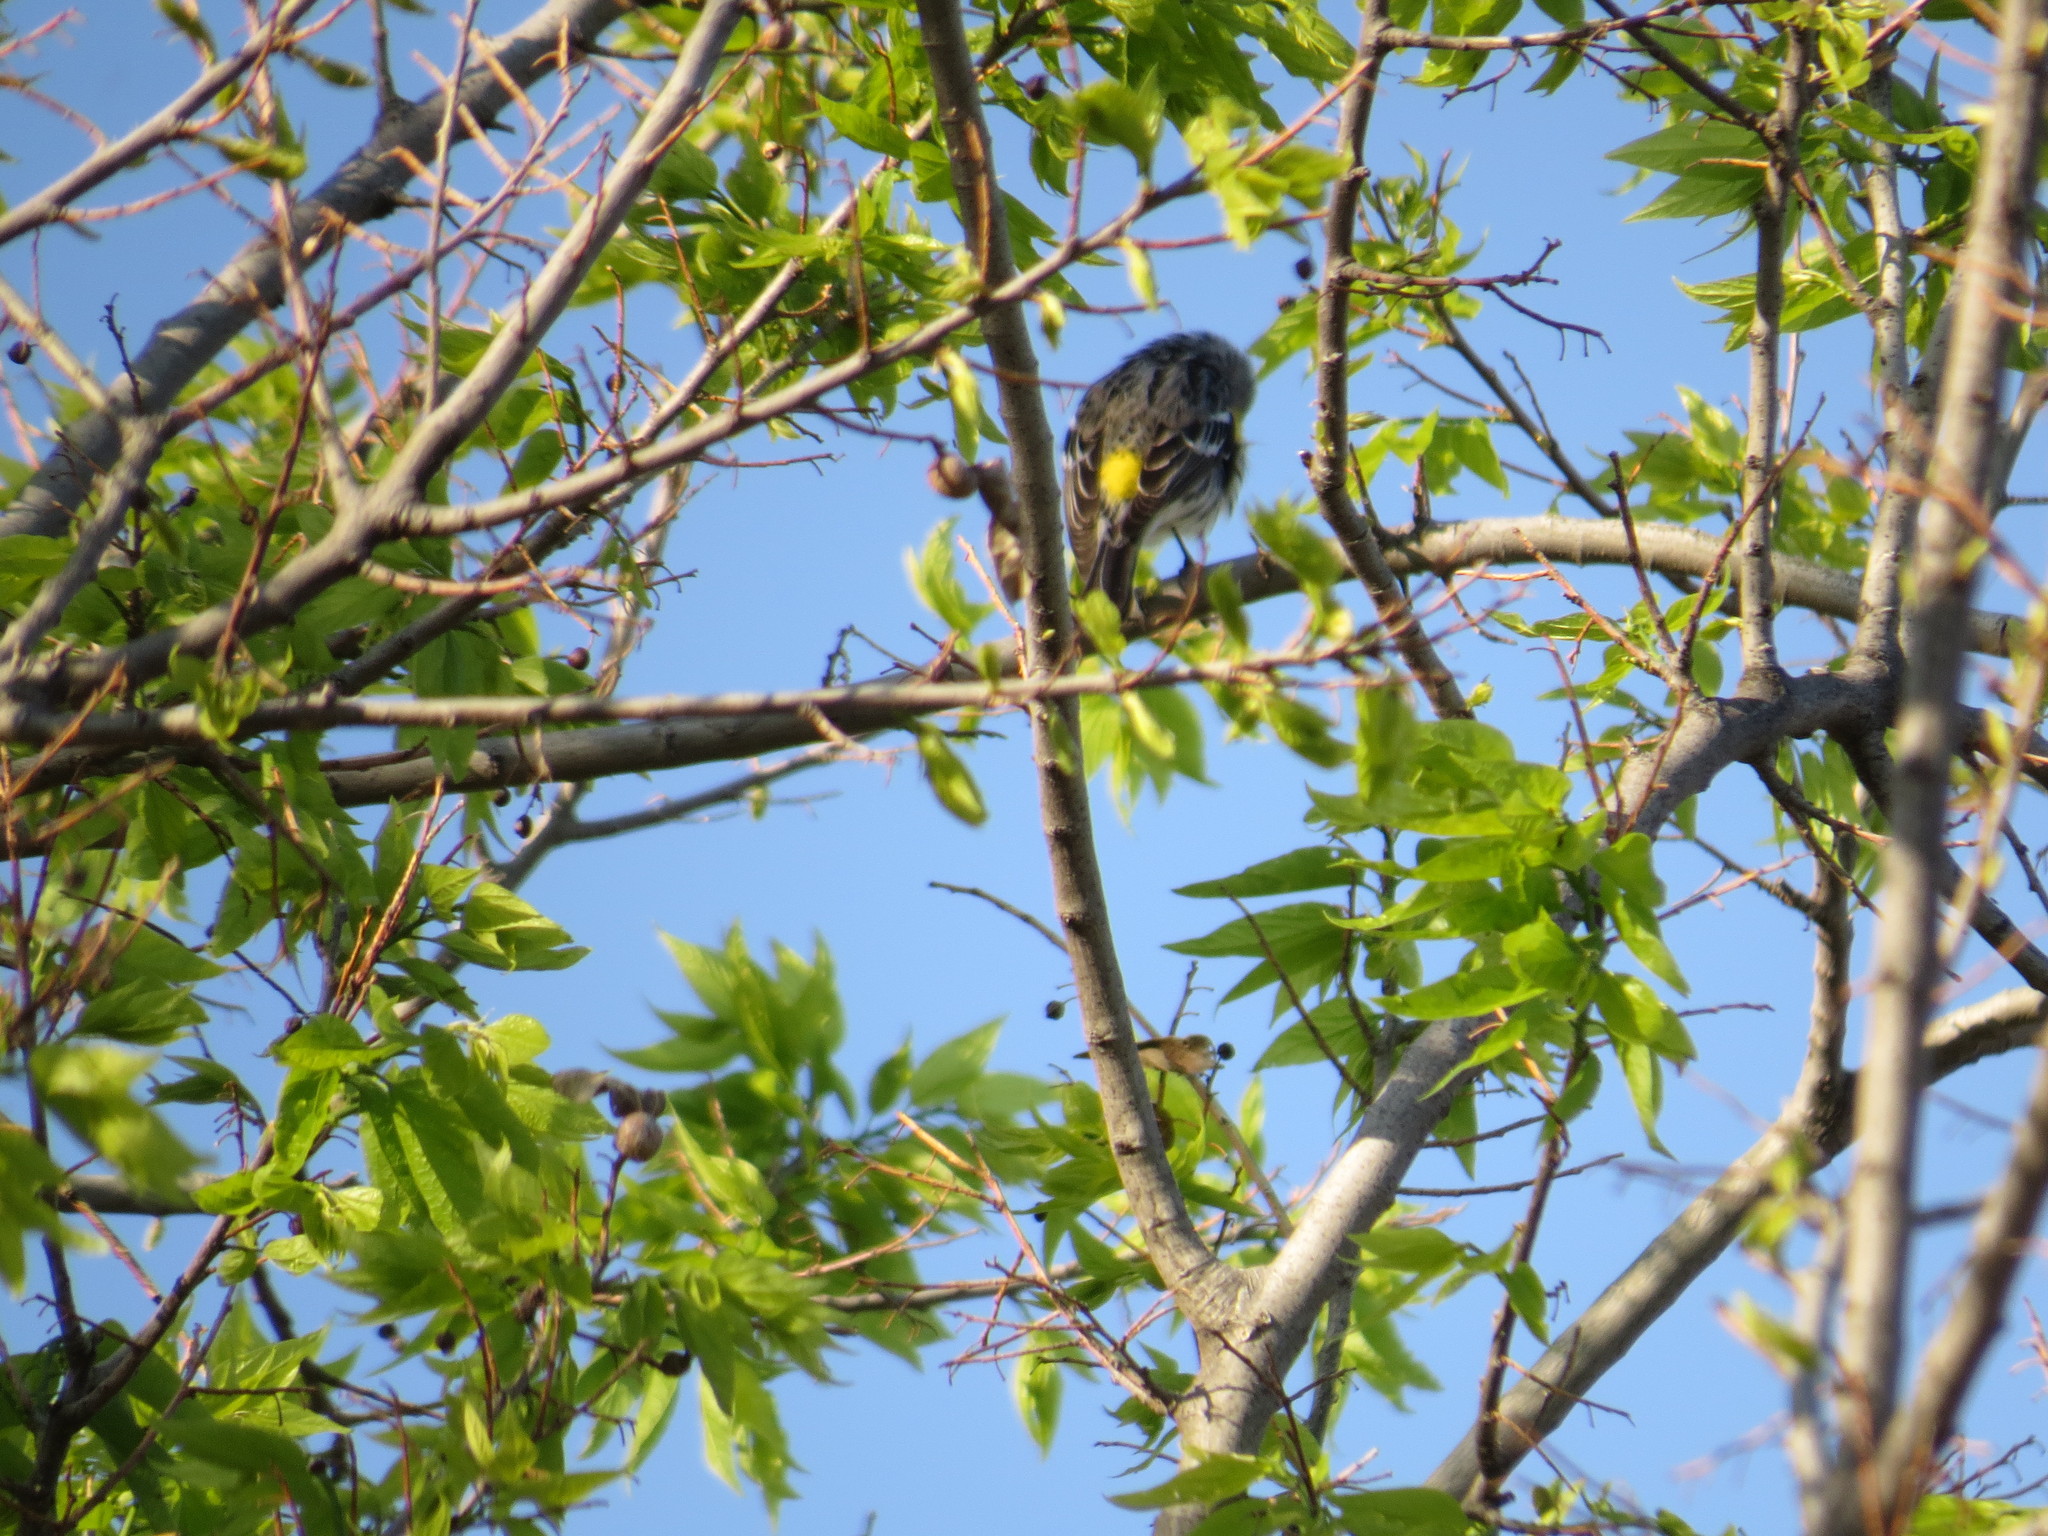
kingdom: Animalia
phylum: Chordata
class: Aves
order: Passeriformes
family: Parulidae
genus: Setophaga
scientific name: Setophaga coronata
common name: Myrtle warbler
